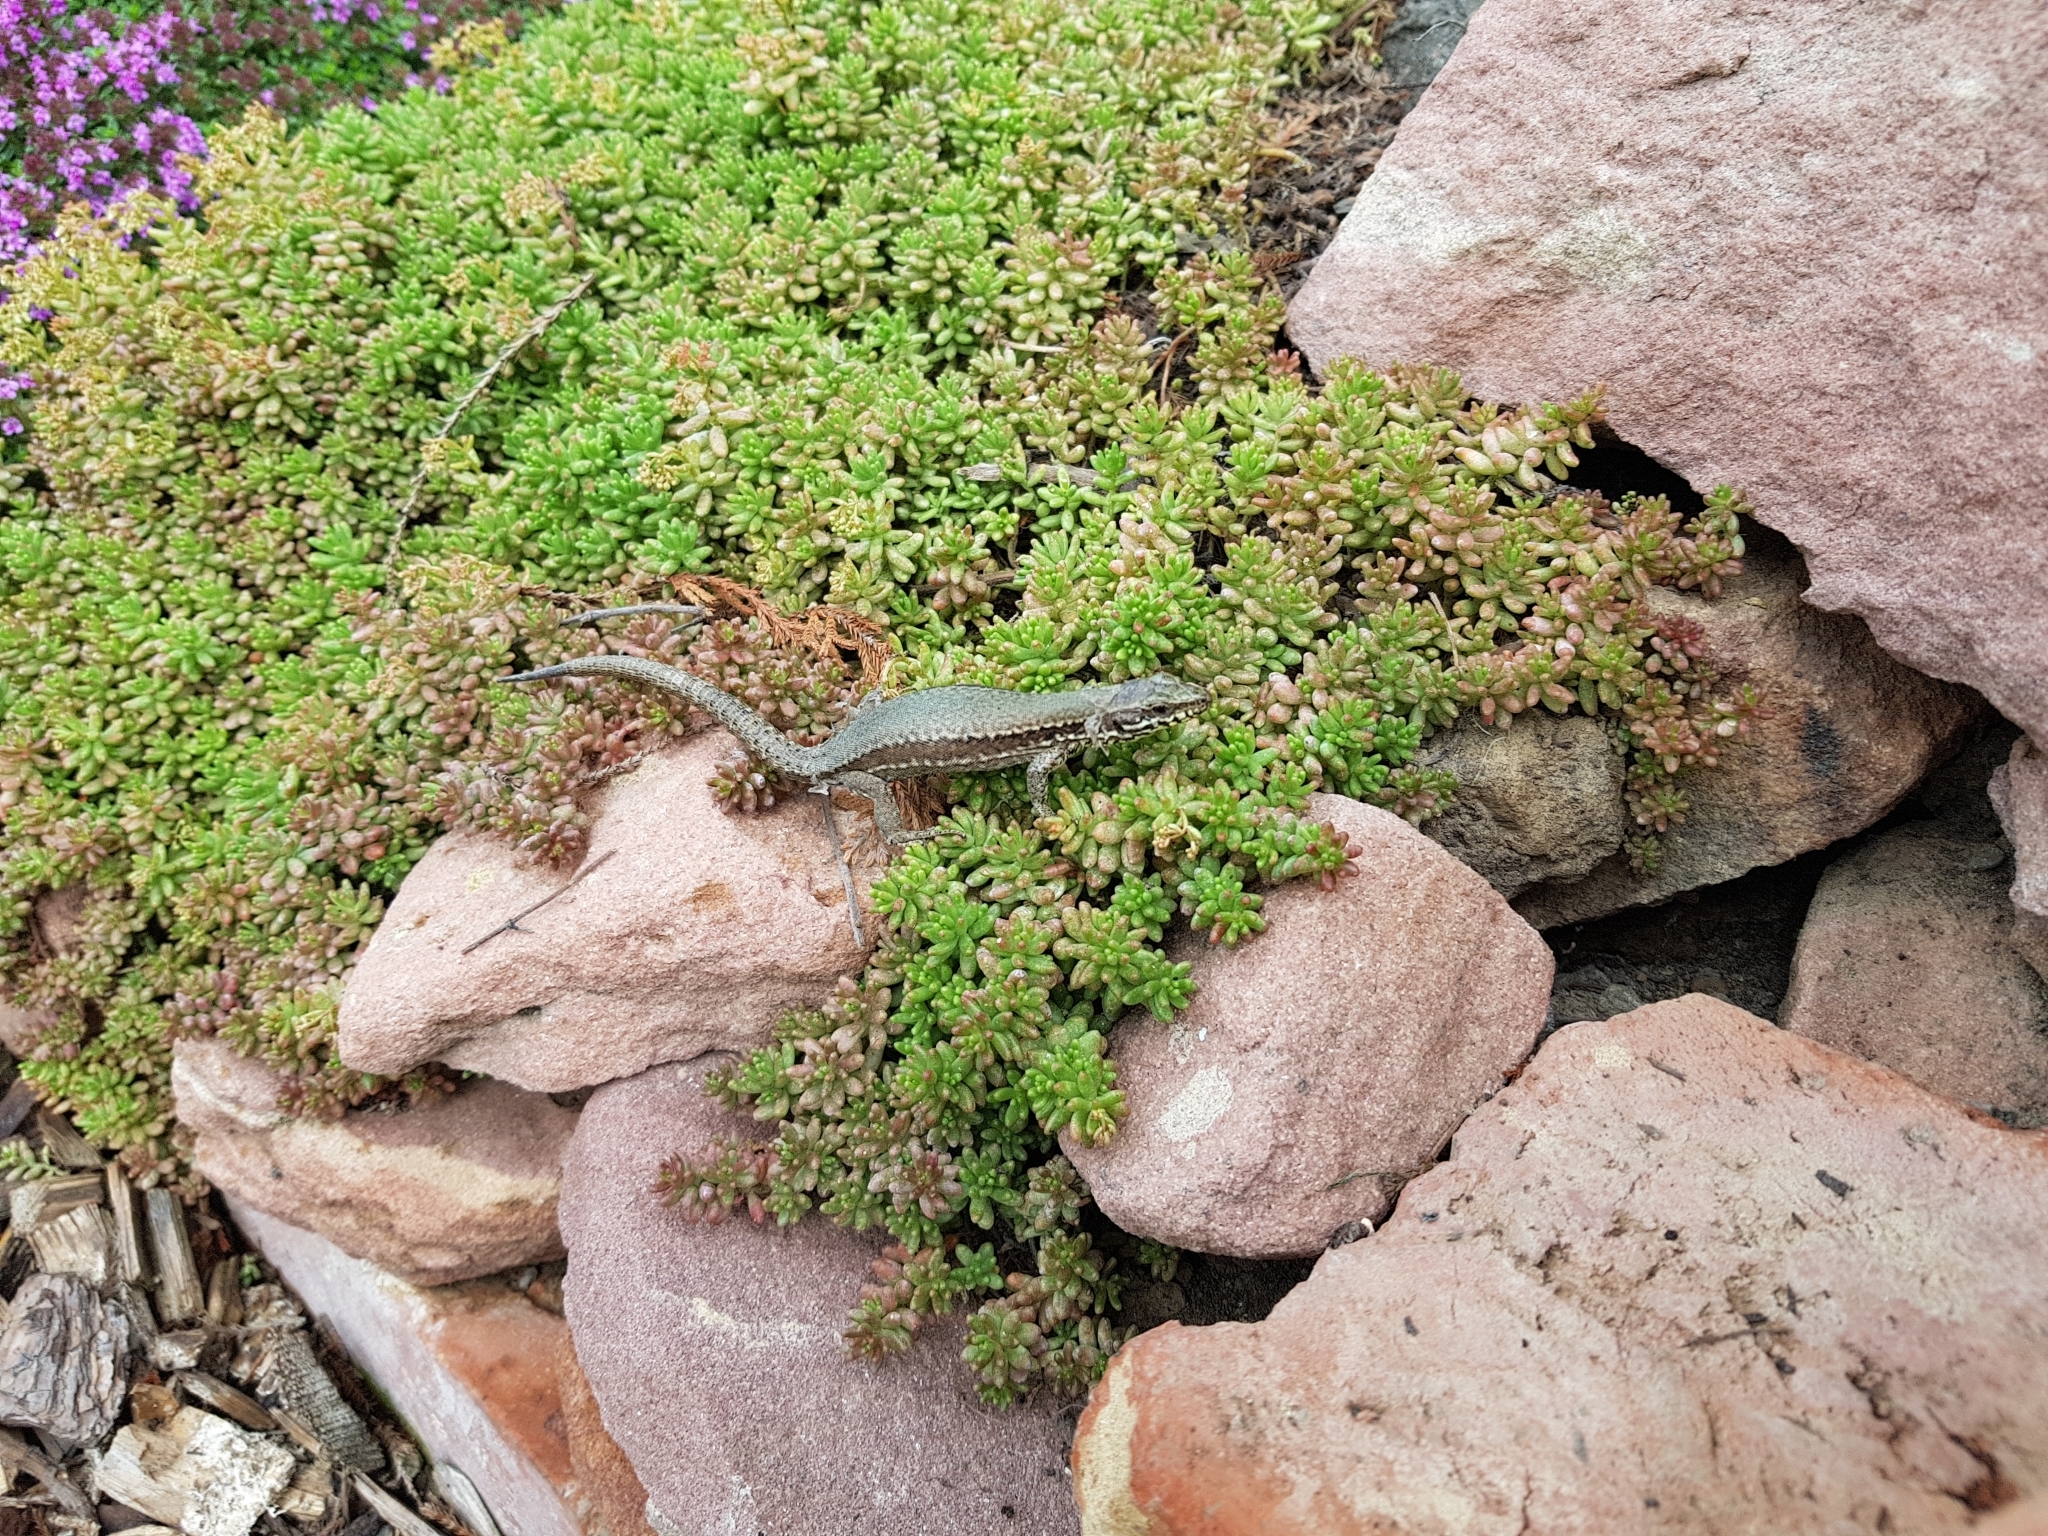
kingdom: Animalia
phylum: Chordata
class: Squamata
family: Lacertidae
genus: Podarcis
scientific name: Podarcis muralis
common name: Common wall lizard
